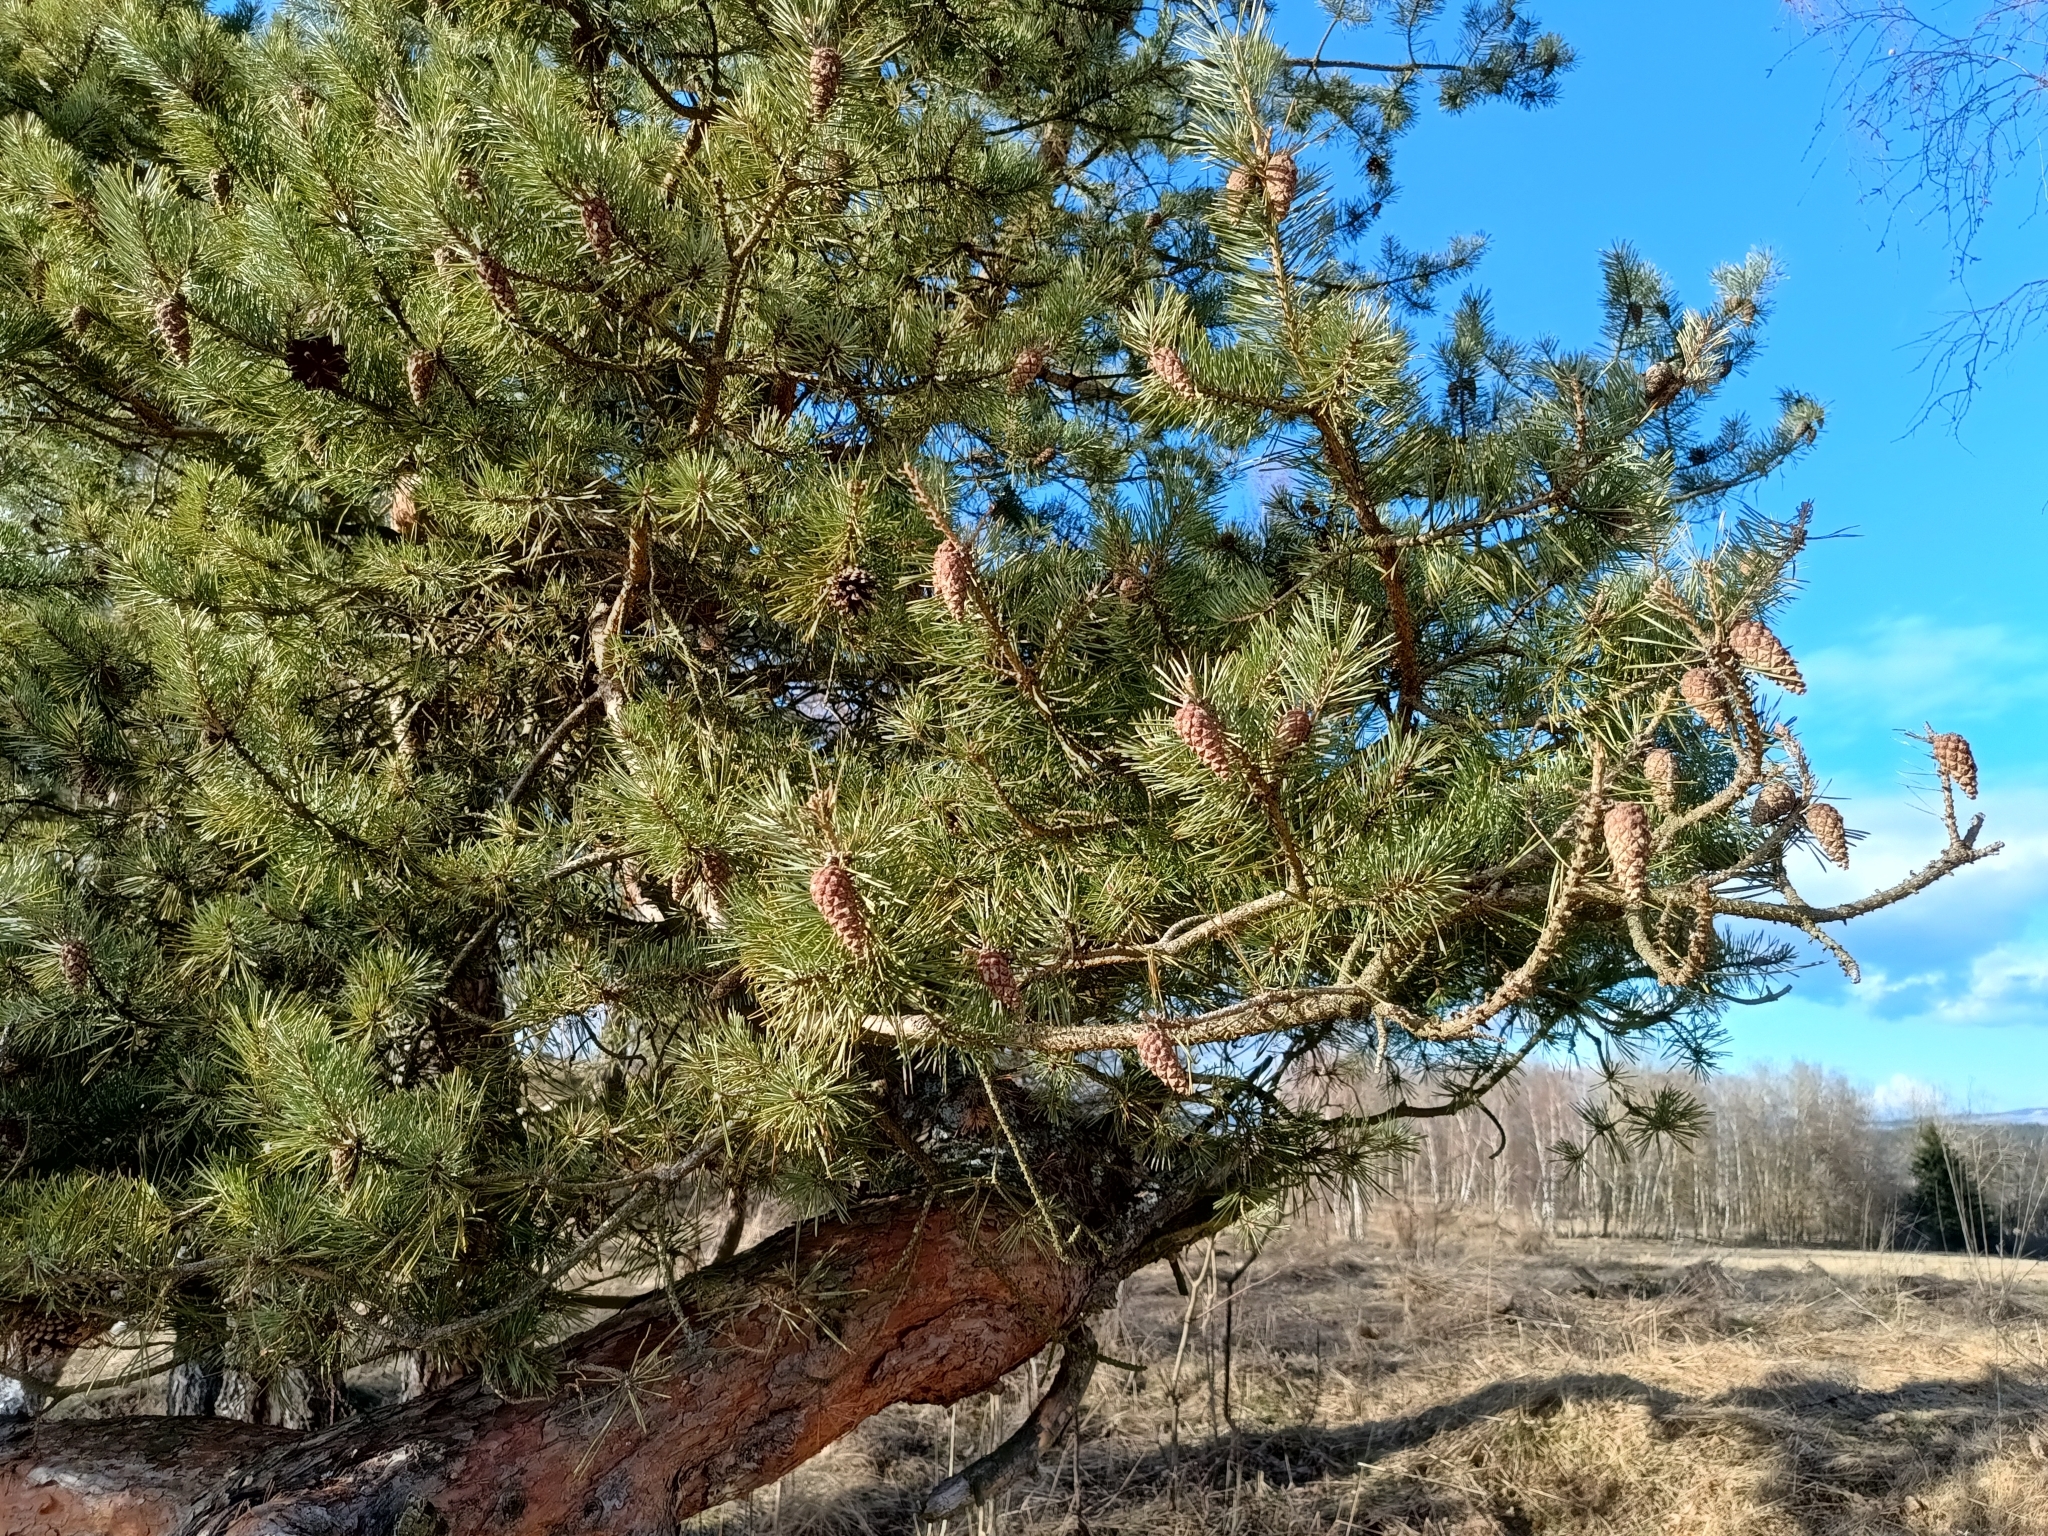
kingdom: Plantae
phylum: Tracheophyta
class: Pinopsida
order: Pinales
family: Pinaceae
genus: Pinus
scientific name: Pinus sylvestris
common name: Scots pine
